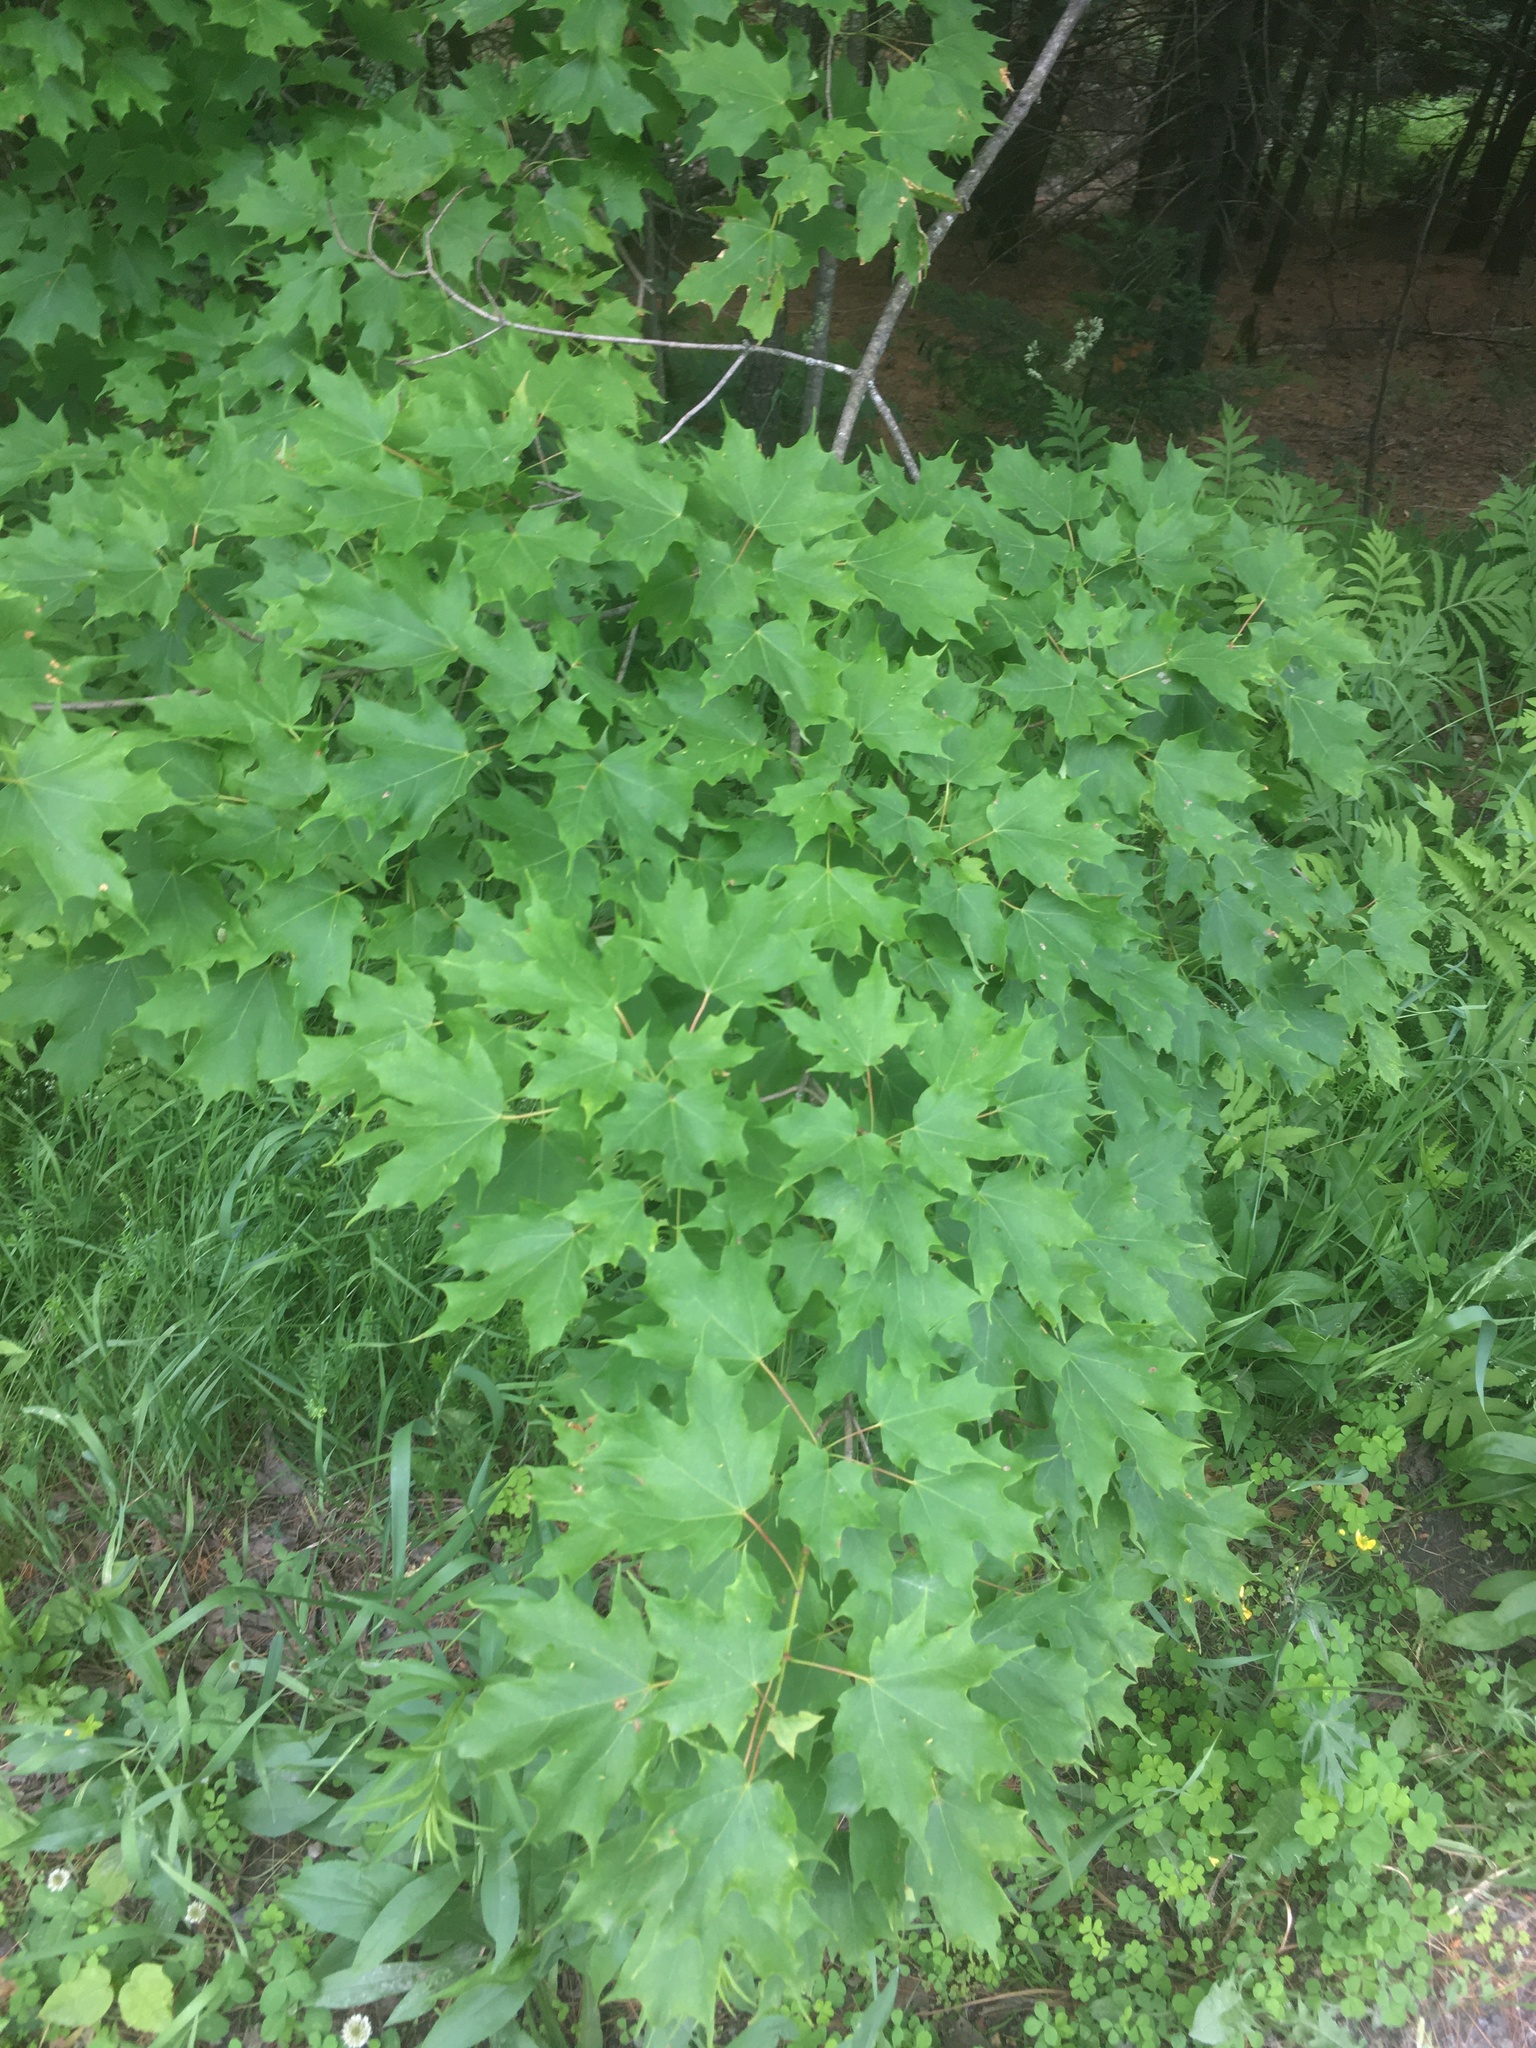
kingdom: Plantae
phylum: Tracheophyta
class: Magnoliopsida
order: Sapindales
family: Sapindaceae
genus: Acer
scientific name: Acer saccharum
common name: Sugar maple
